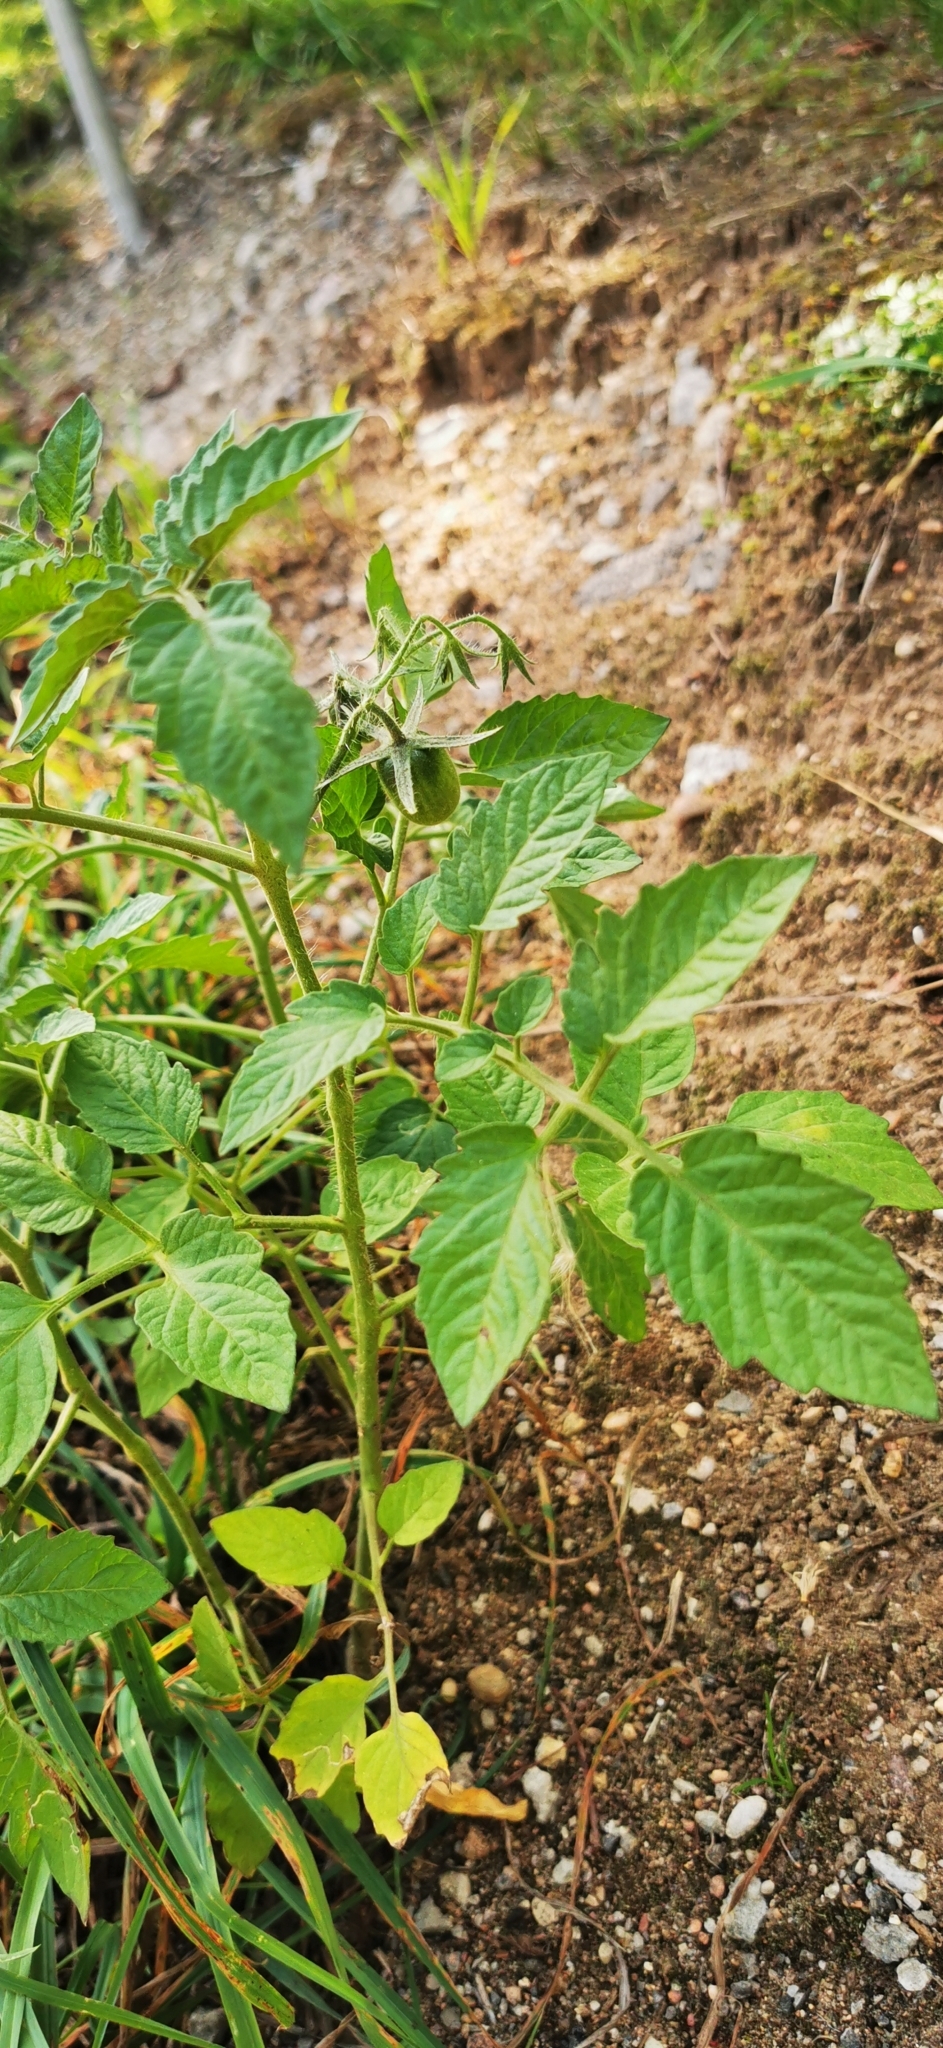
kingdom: Plantae
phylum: Tracheophyta
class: Magnoliopsida
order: Solanales
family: Solanaceae
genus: Solanum
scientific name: Solanum lycopersicum
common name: Garden tomato
